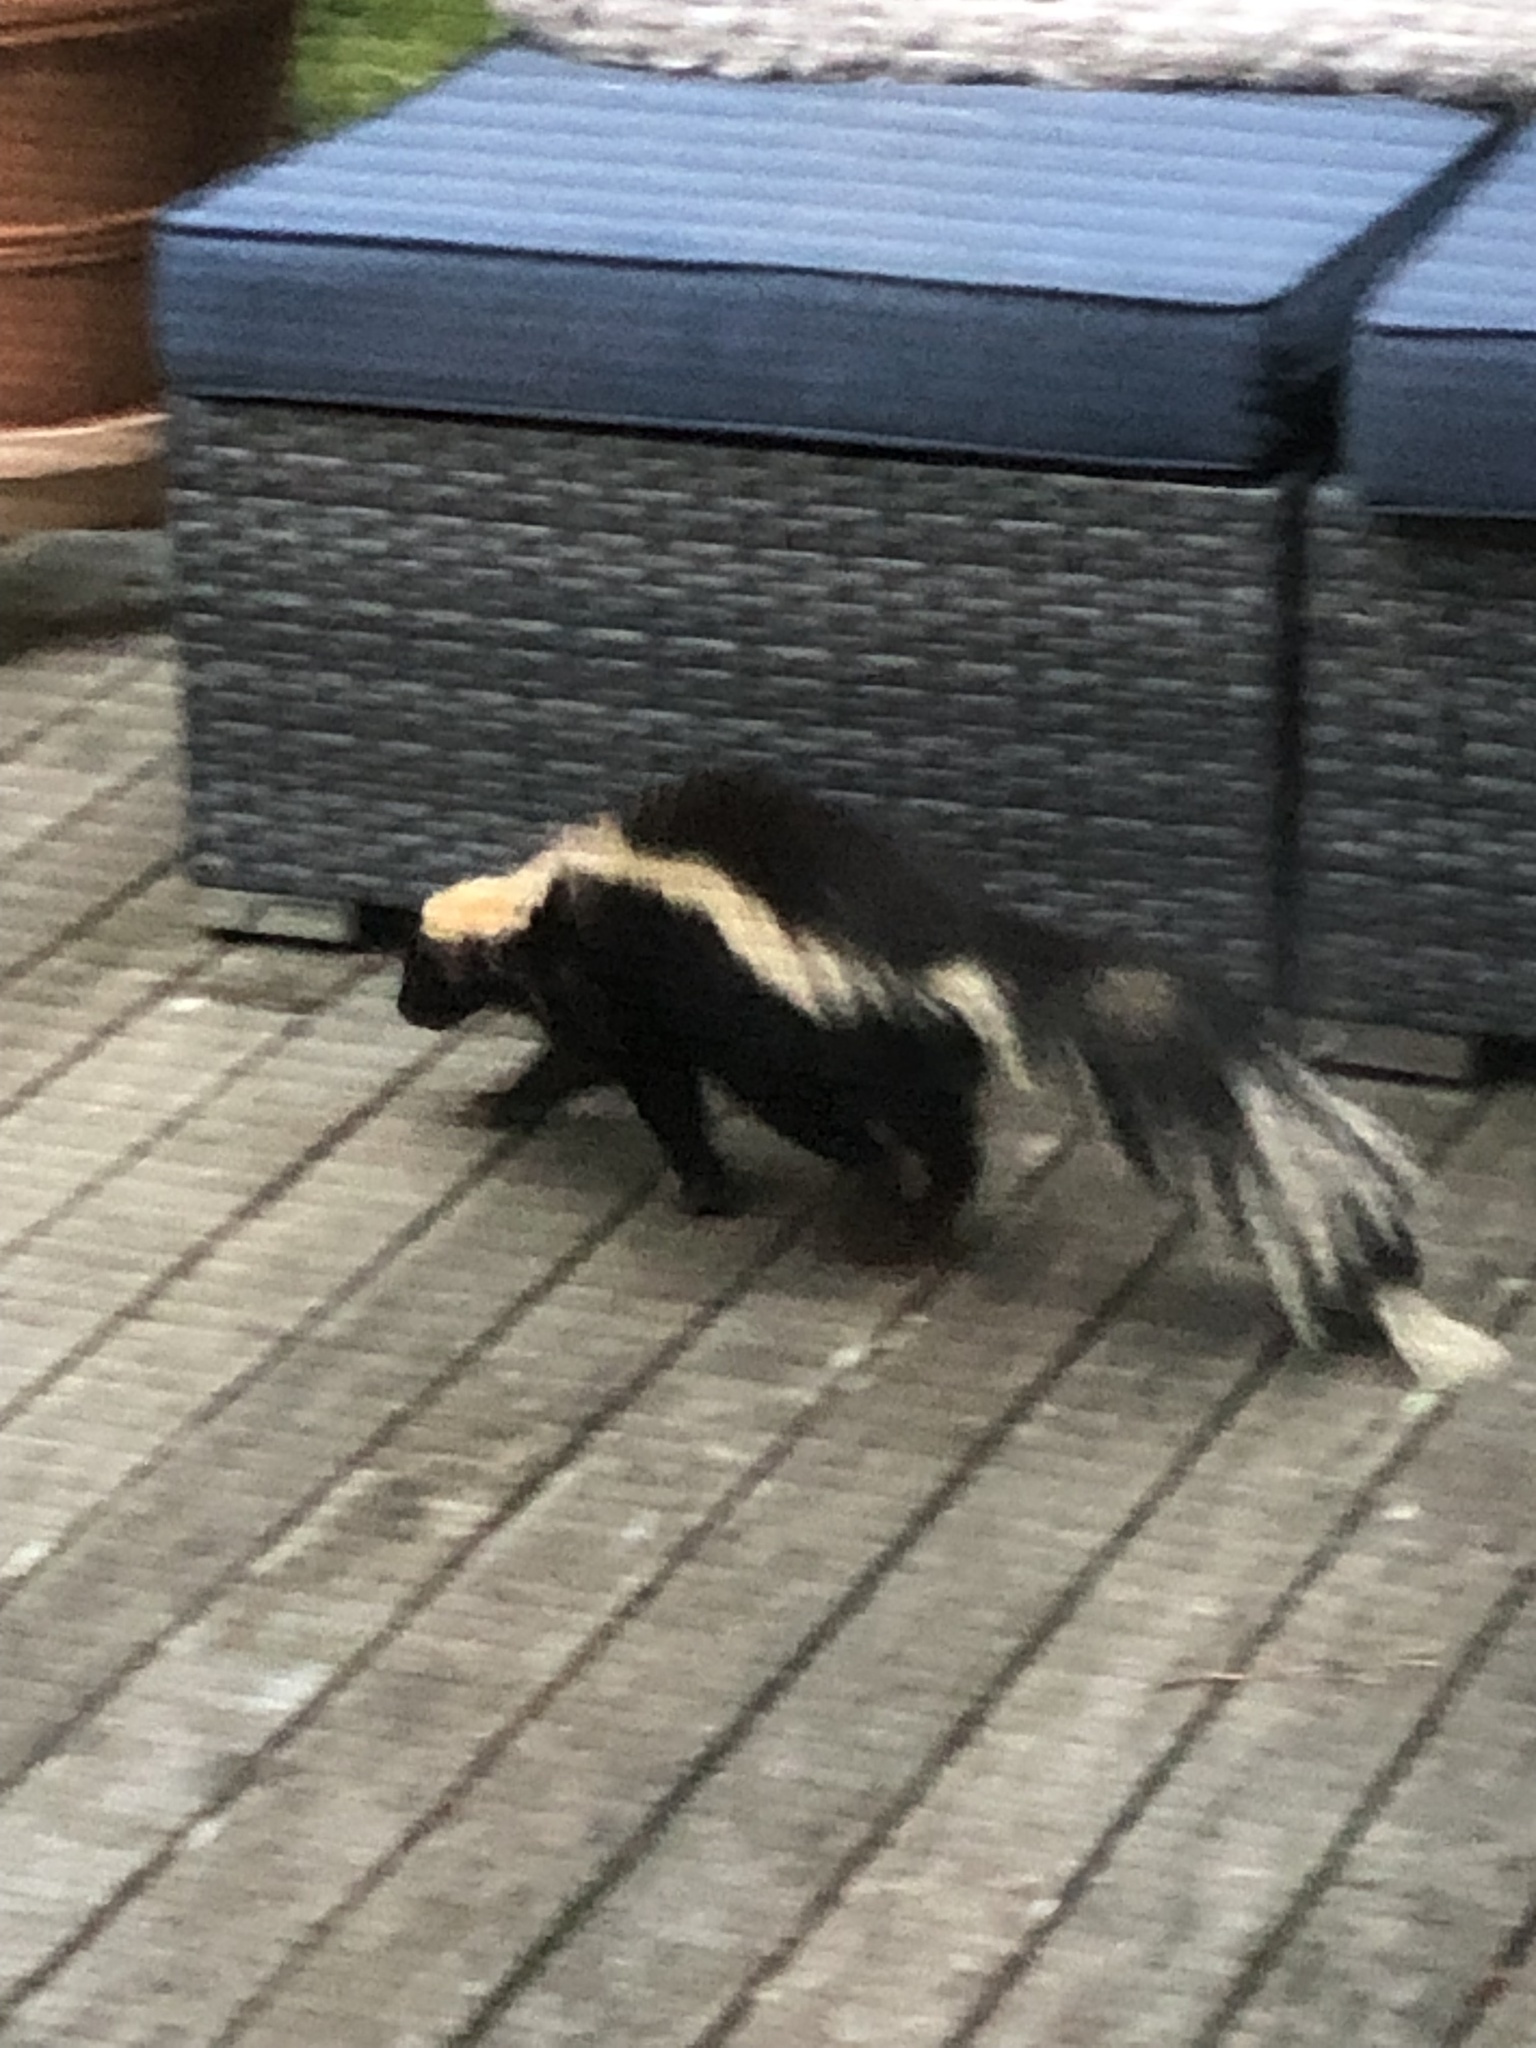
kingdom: Animalia
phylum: Chordata
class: Mammalia
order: Carnivora
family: Mephitidae
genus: Mephitis
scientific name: Mephitis mephitis
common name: Striped skunk
